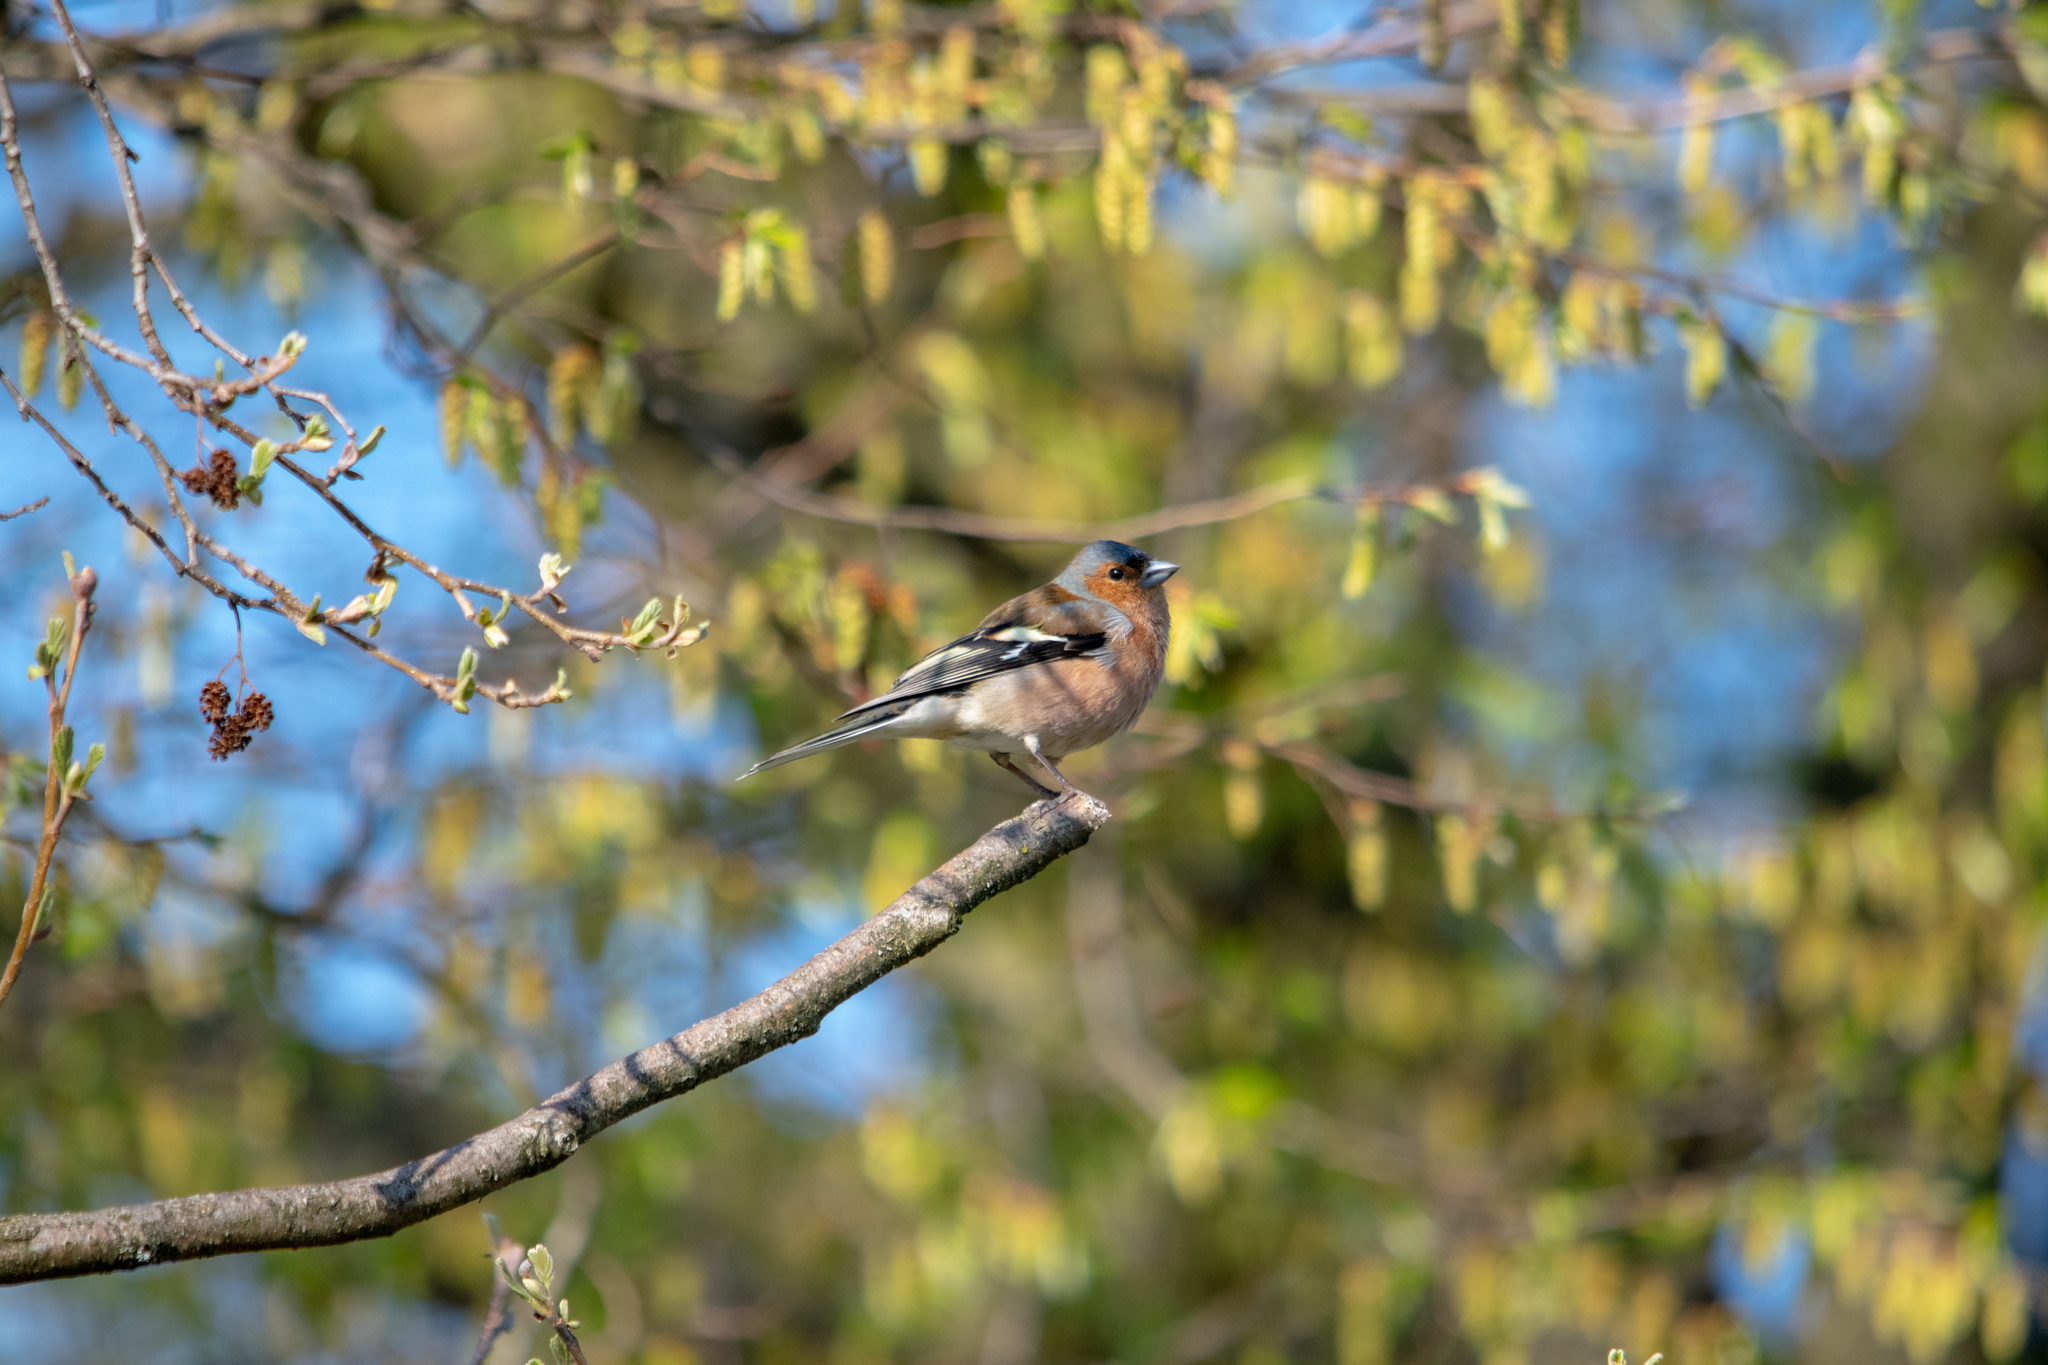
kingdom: Animalia
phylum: Chordata
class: Aves
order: Passeriformes
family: Fringillidae
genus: Fringilla
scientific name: Fringilla coelebs
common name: Common chaffinch
